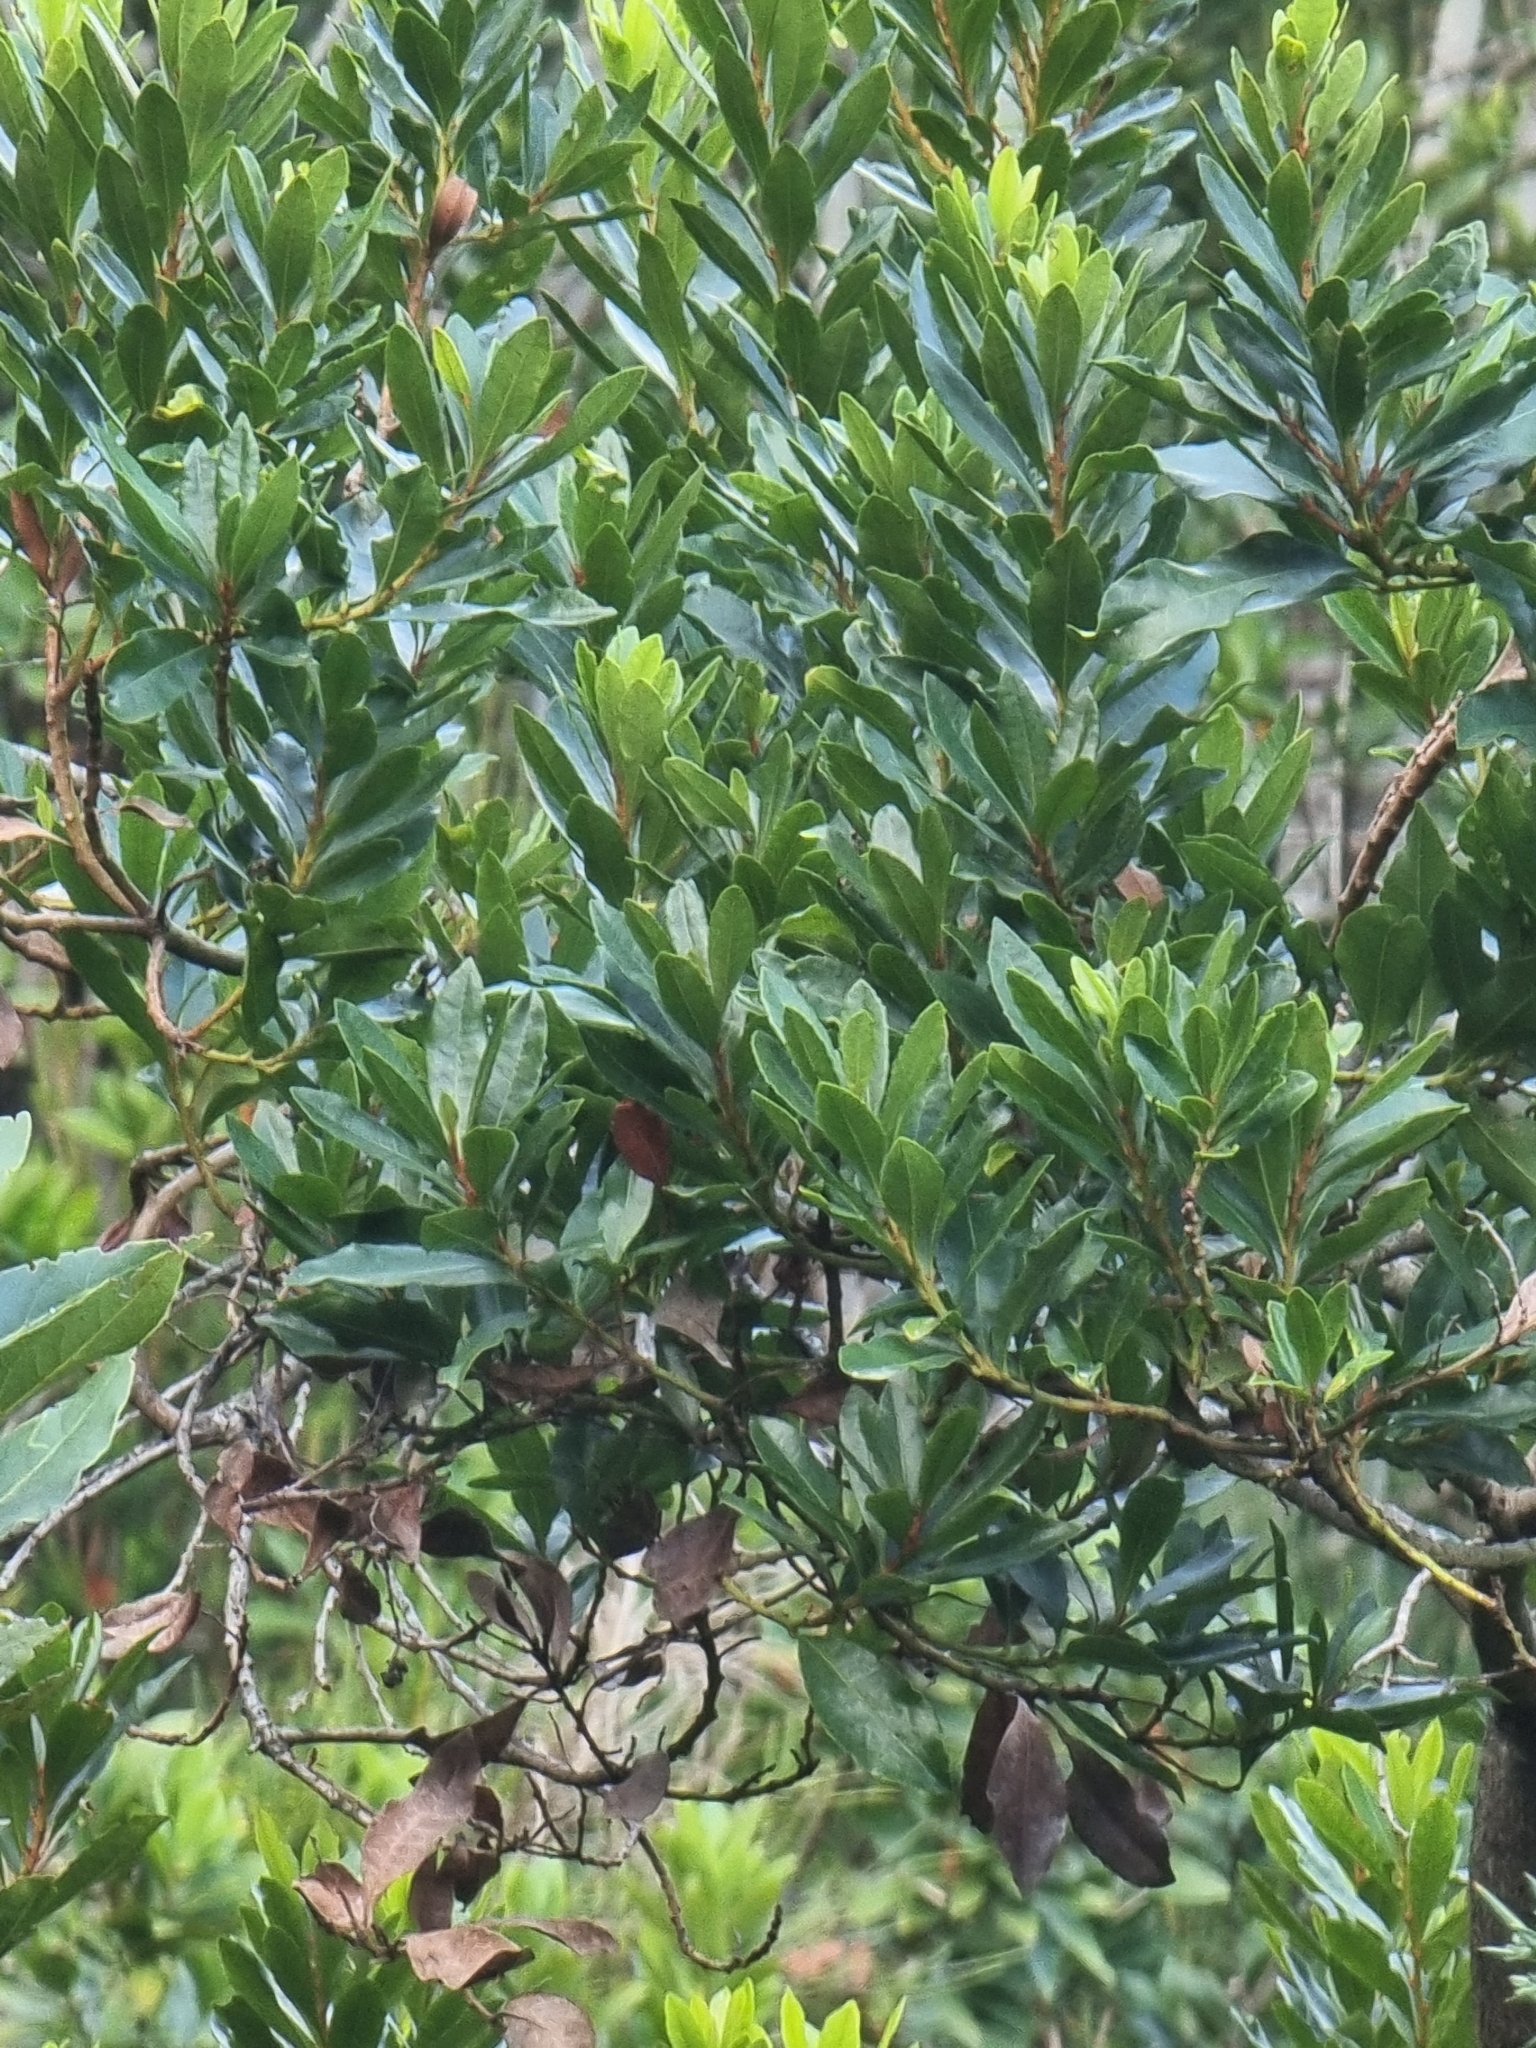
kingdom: Plantae
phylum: Tracheophyta
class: Magnoliopsida
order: Fagales
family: Myricaceae
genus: Morella
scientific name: Morella faya
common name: Firetree
